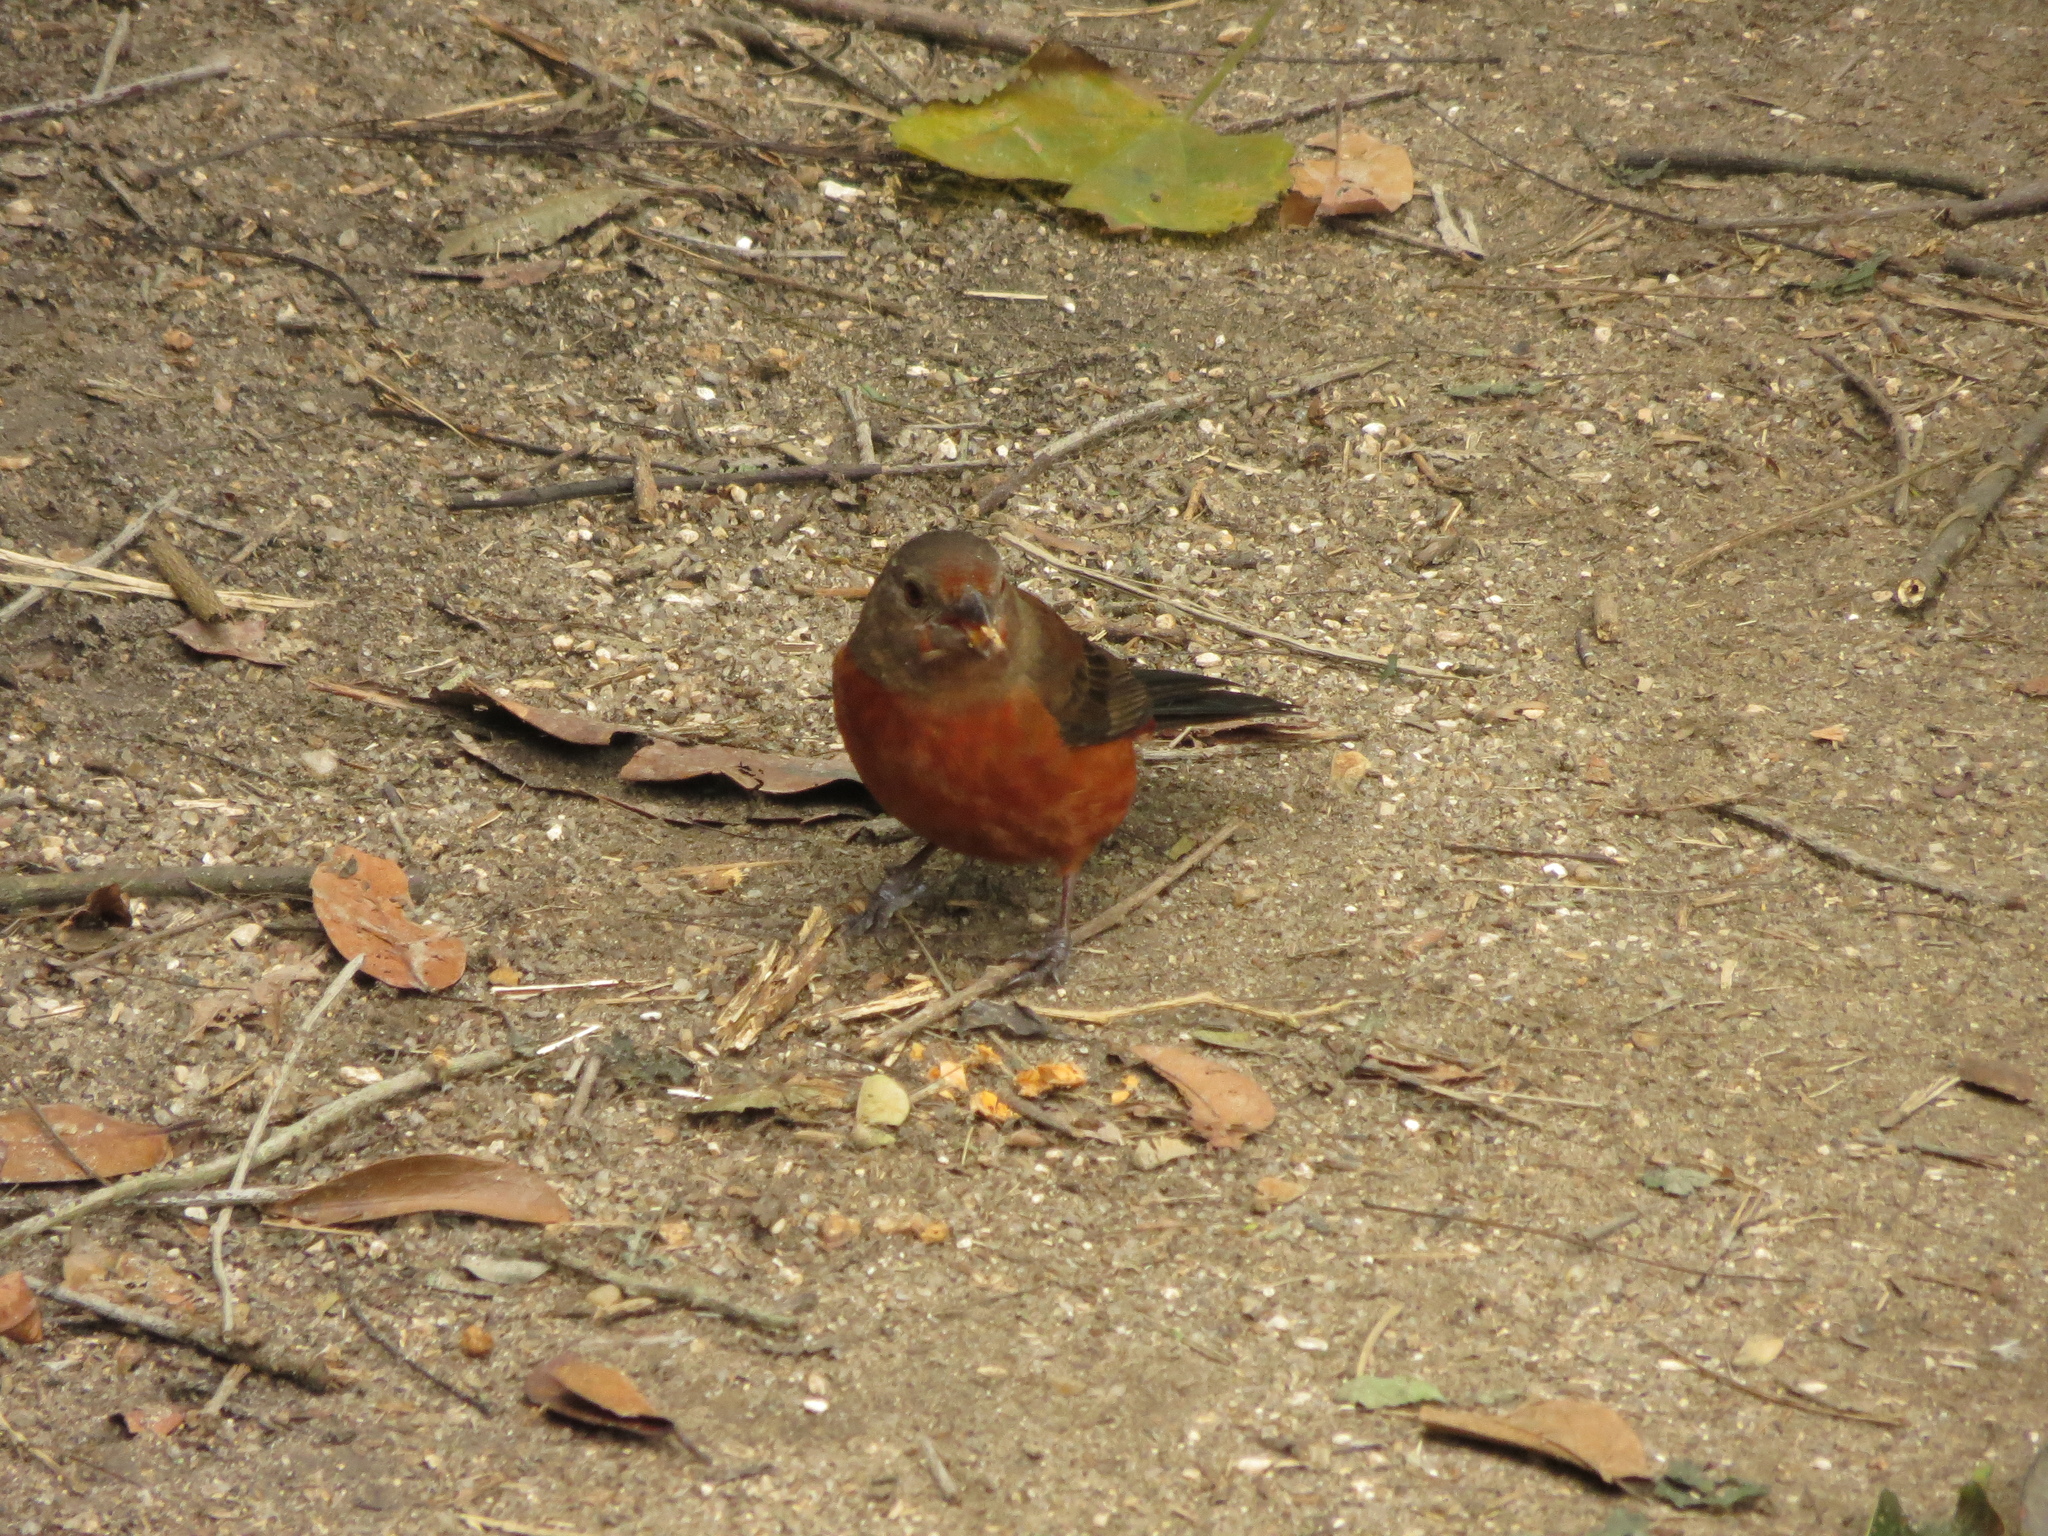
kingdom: Animalia
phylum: Chordata
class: Aves
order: Passeriformes
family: Thraupidae
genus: Ramphocelus
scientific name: Ramphocelus bresilia
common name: Brazilian tanager
